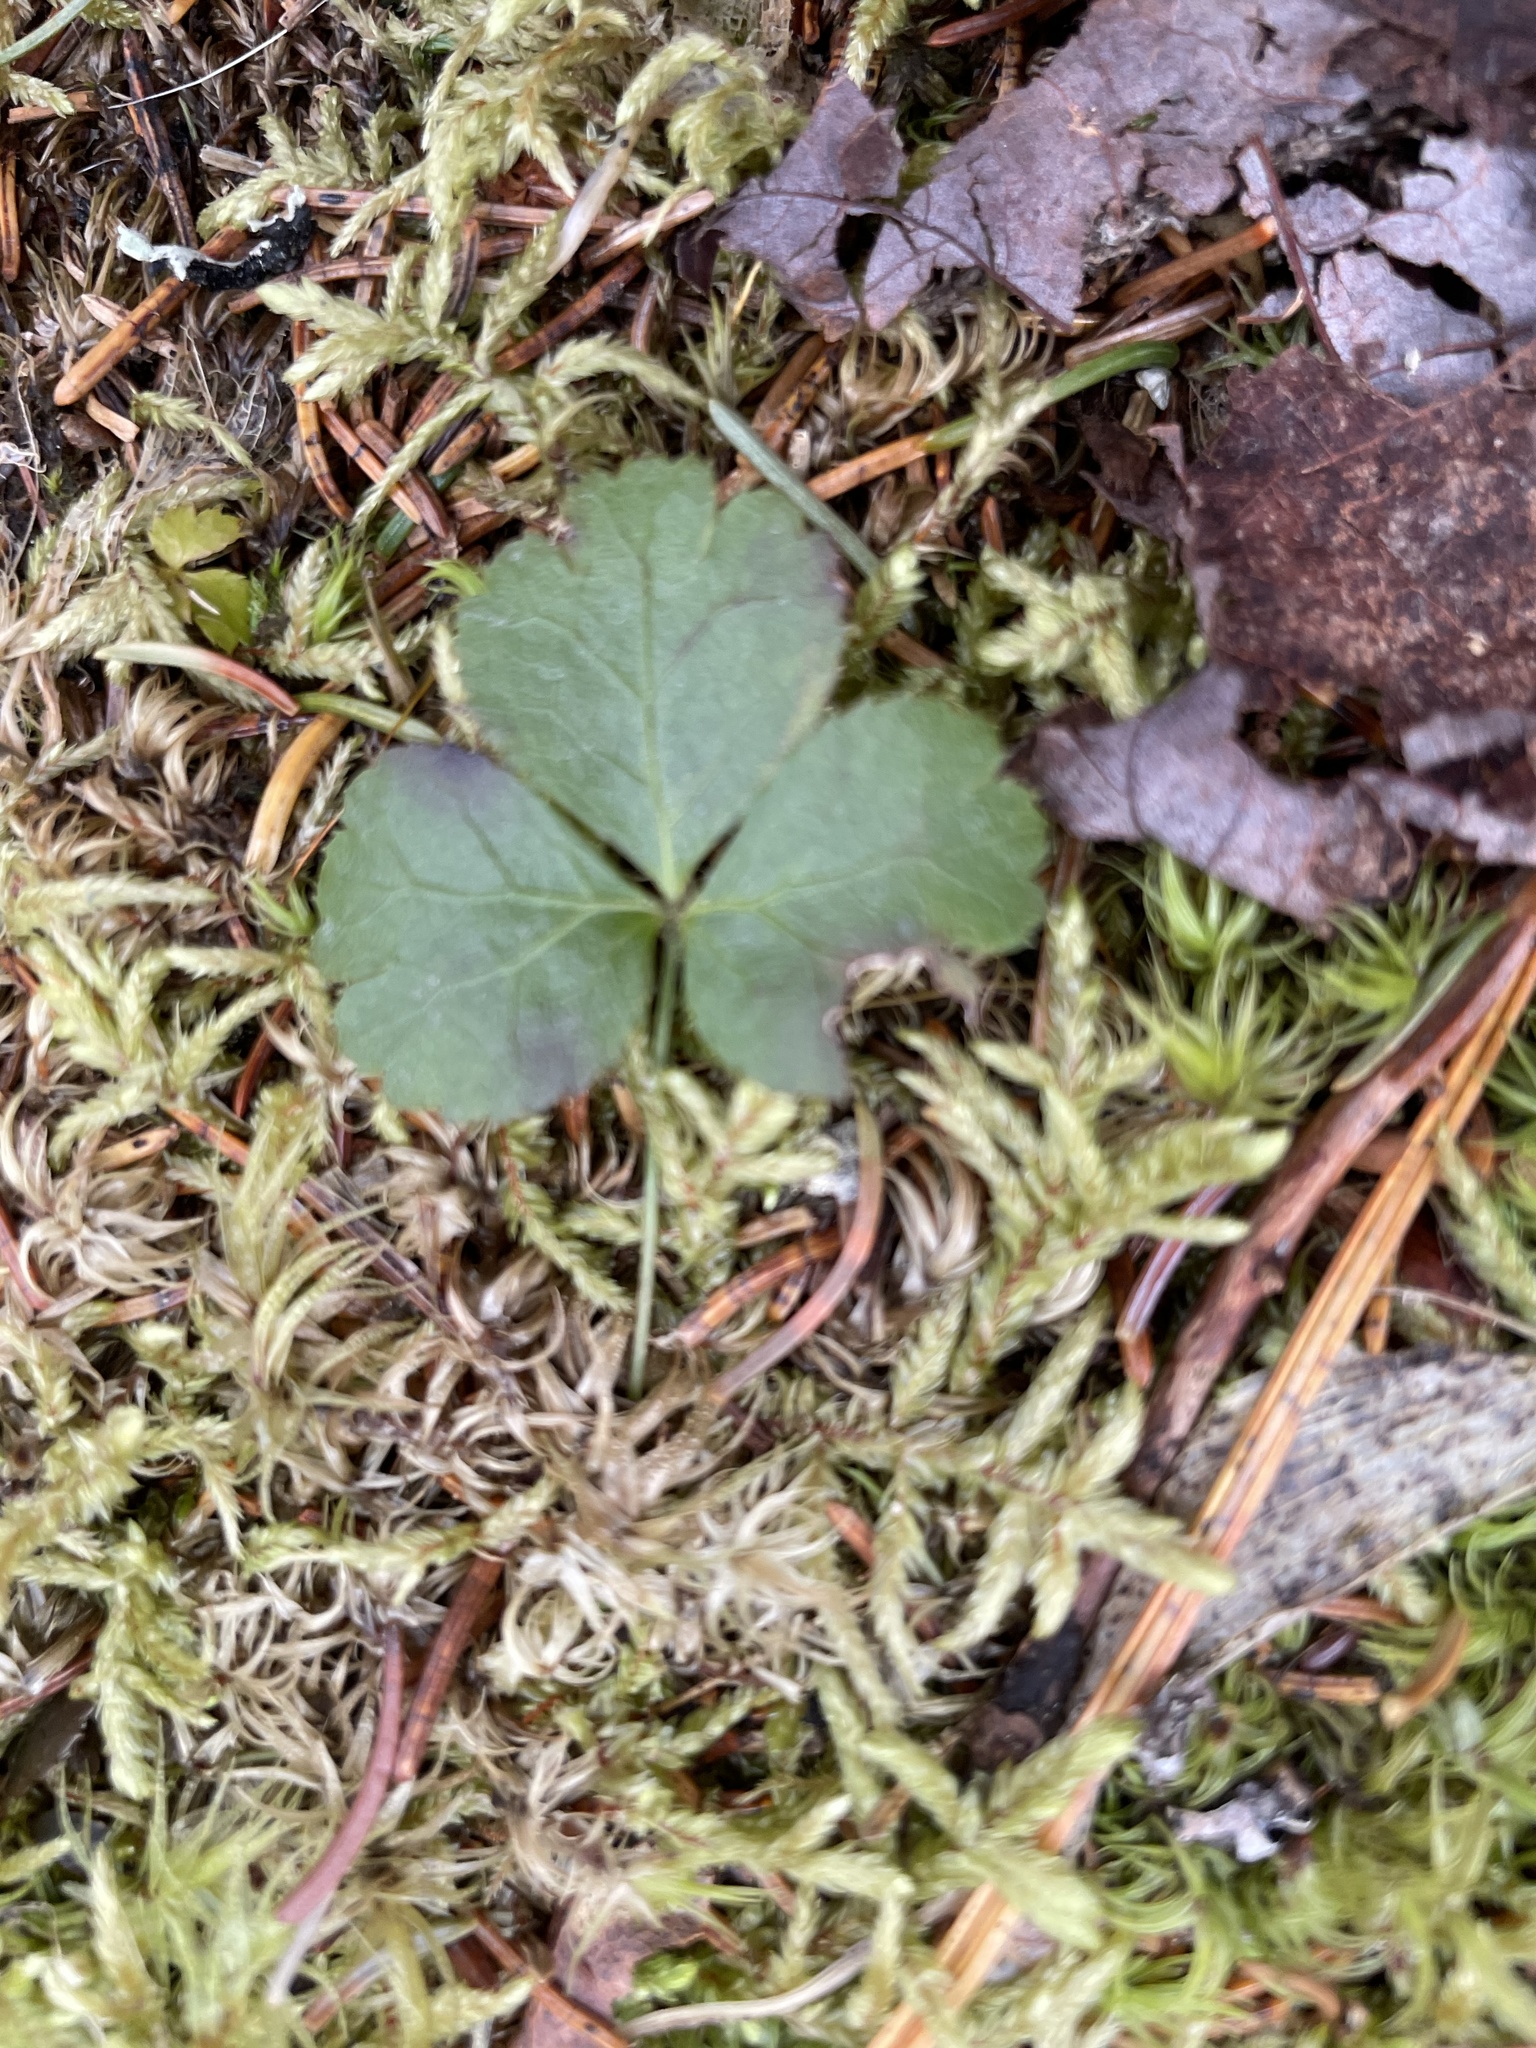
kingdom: Plantae
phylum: Tracheophyta
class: Magnoliopsida
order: Ranunculales
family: Ranunculaceae
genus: Coptis
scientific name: Coptis trifolia
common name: Canker-root
